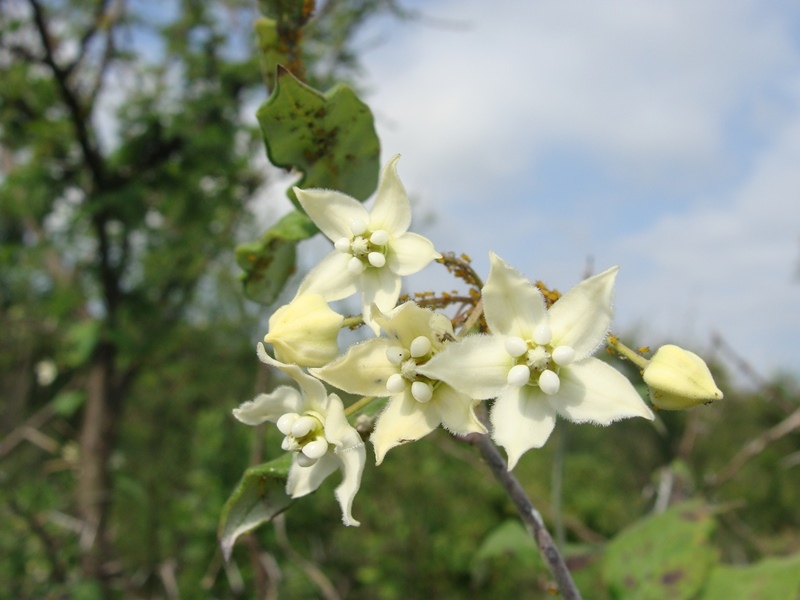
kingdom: Plantae
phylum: Tracheophyta
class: Magnoliopsida
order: Gentianales
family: Apocynaceae
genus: Funastrum
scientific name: Funastrum pannosum
